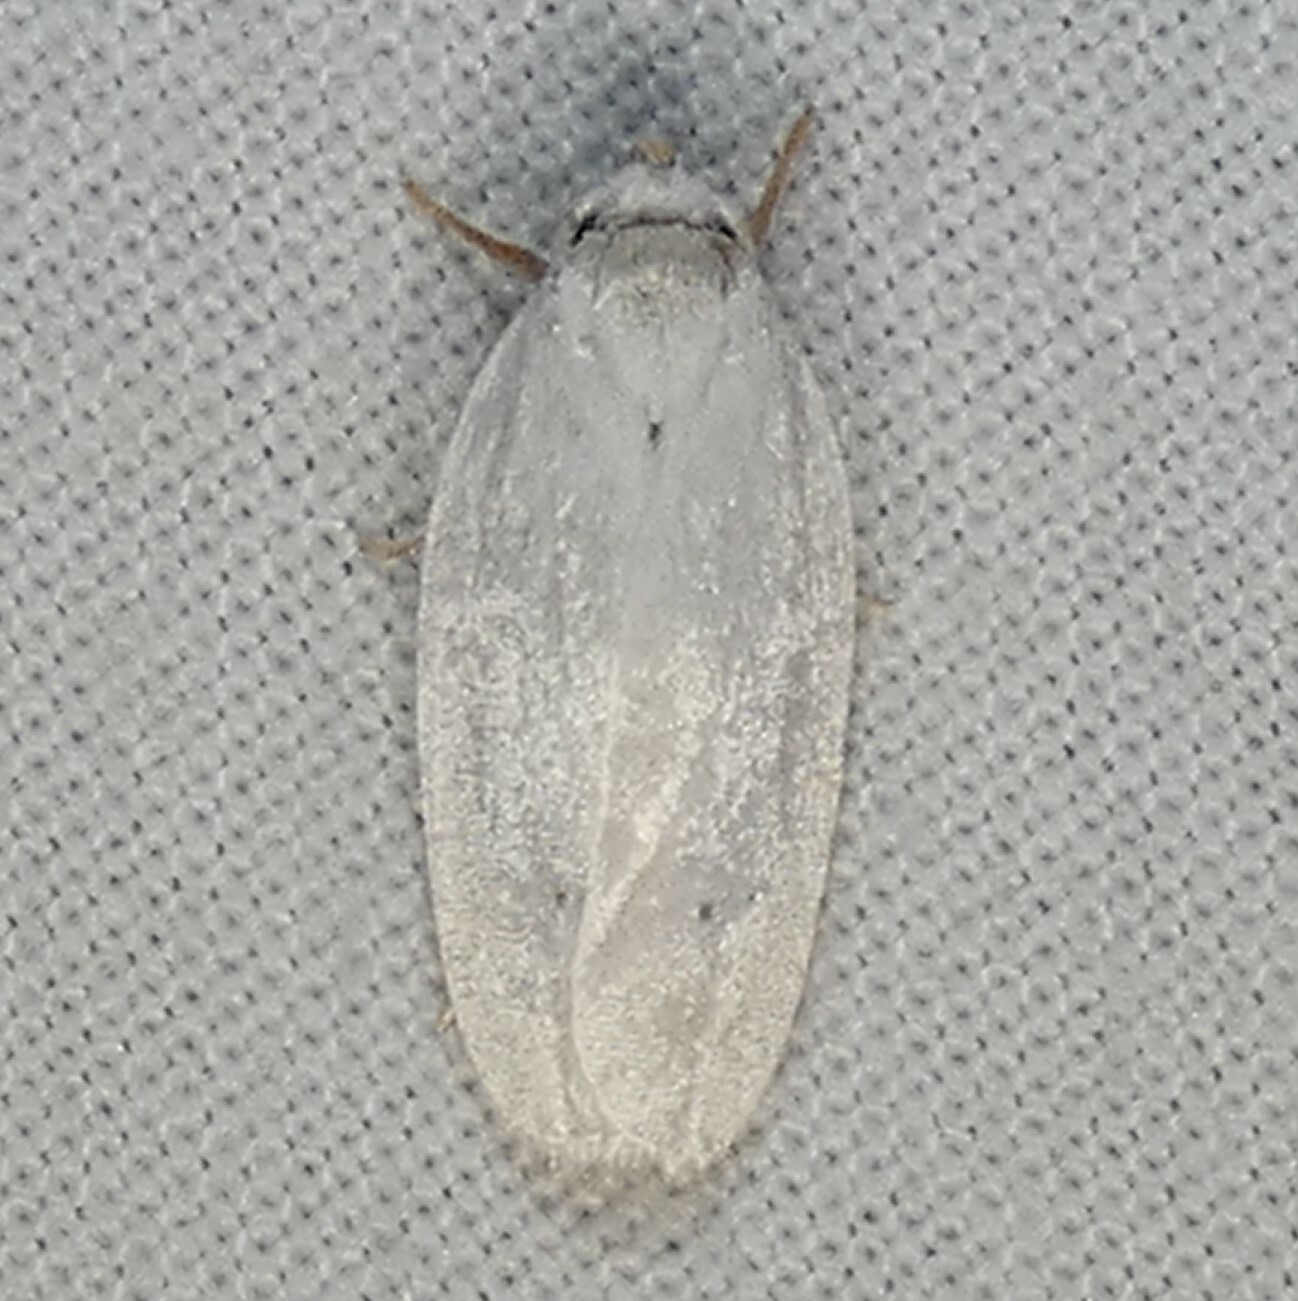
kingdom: Animalia
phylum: Arthropoda
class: Insecta
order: Lepidoptera
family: Depressariidae
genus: Antaeotricha
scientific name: Antaeotricha albulella
